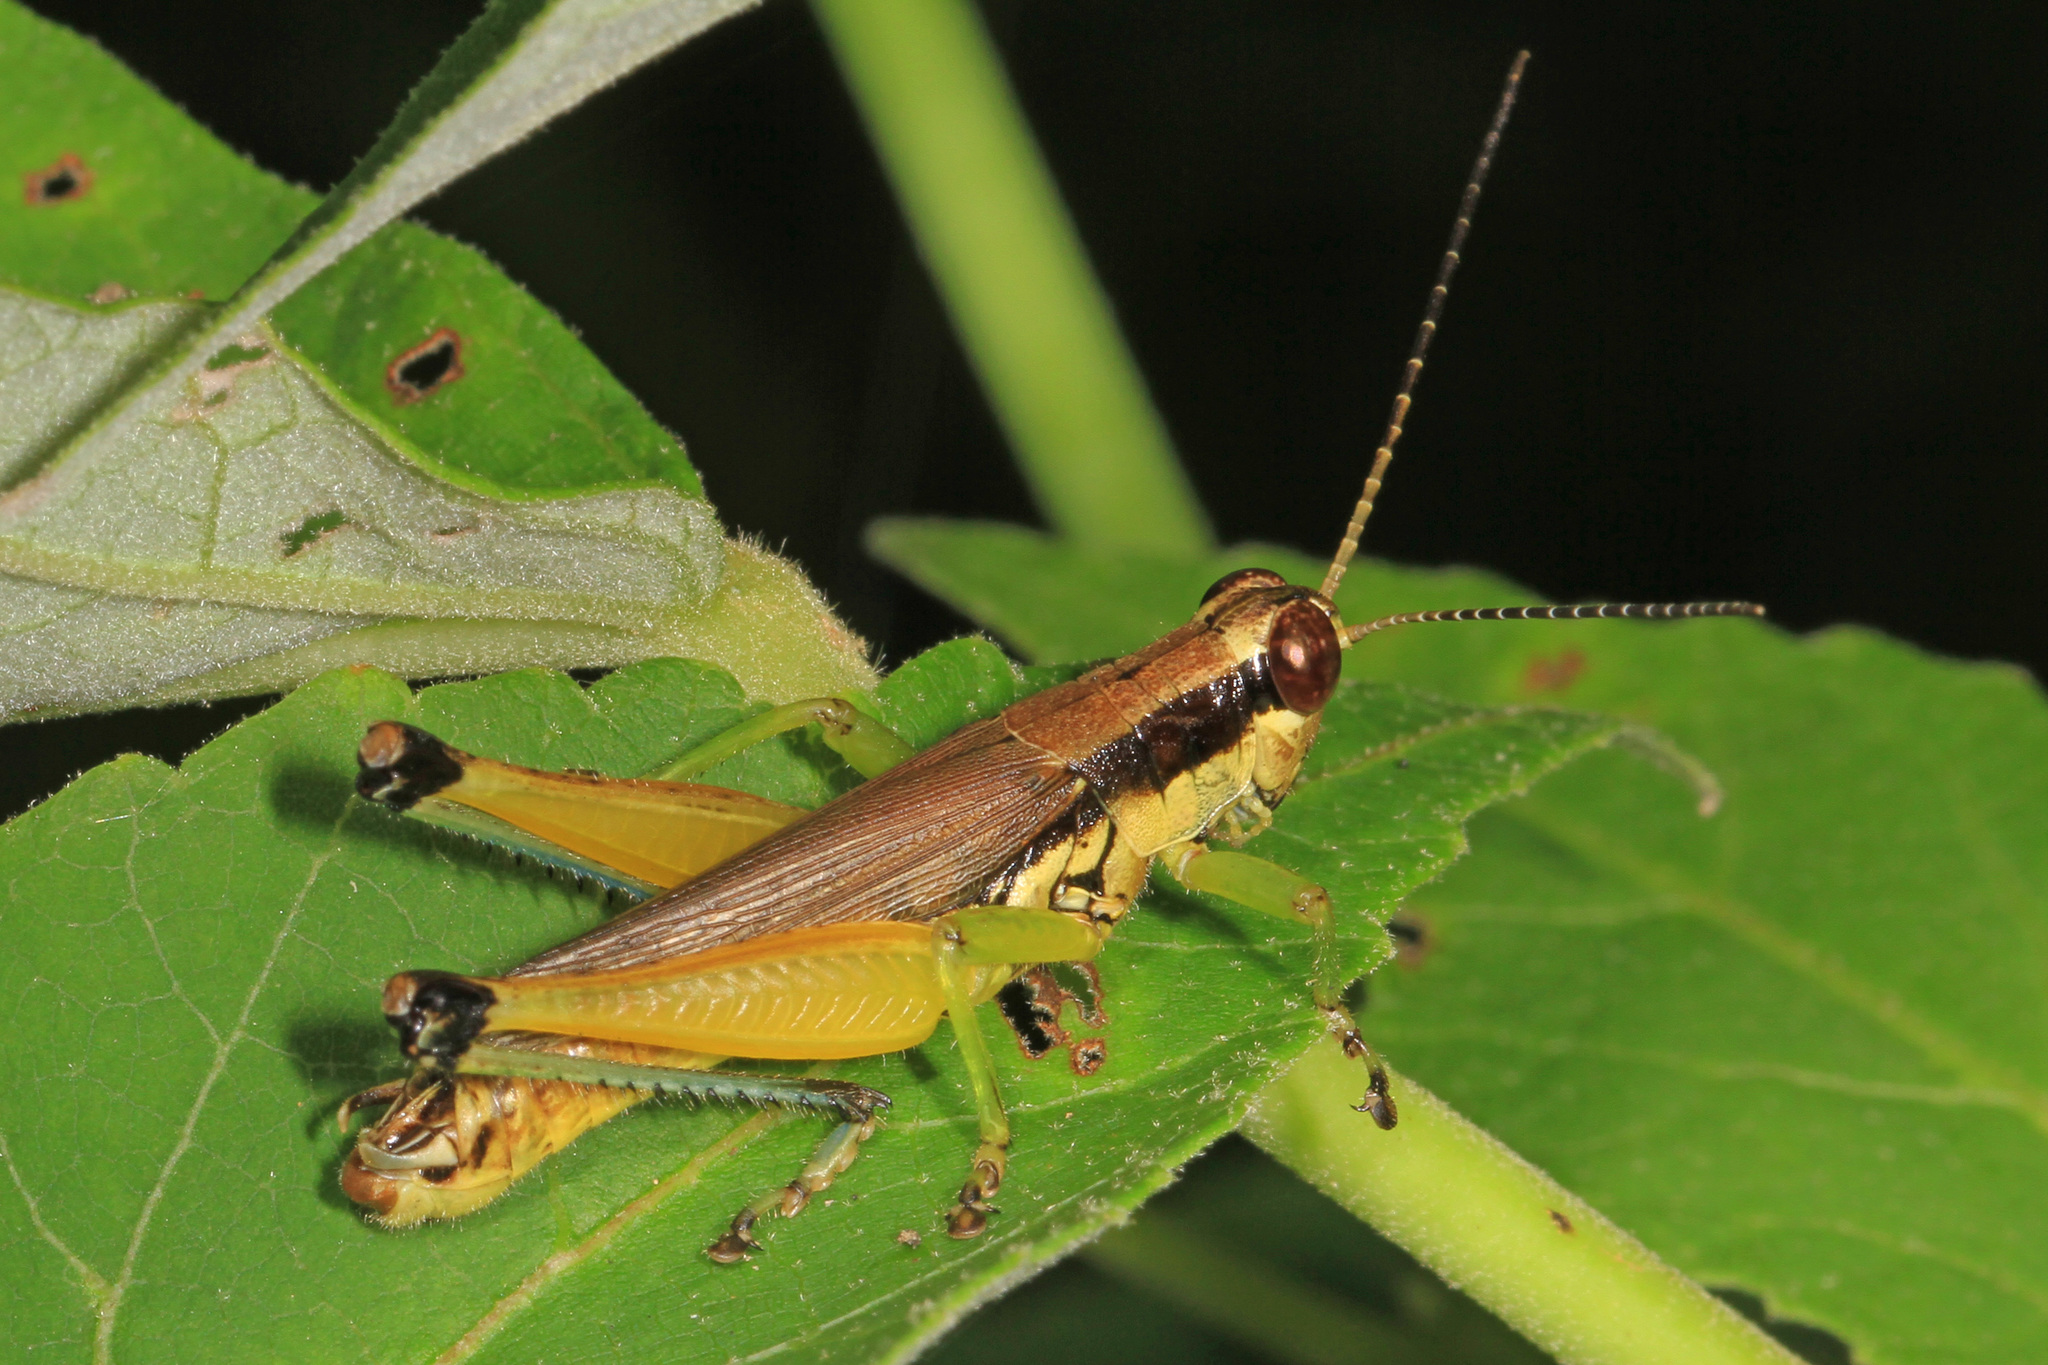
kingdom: Animalia
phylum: Arthropoda
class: Insecta
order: Orthoptera
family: Acrididae
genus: Paroxya
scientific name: Paroxya clavuligera
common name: Olive-green swamp grasshopper
